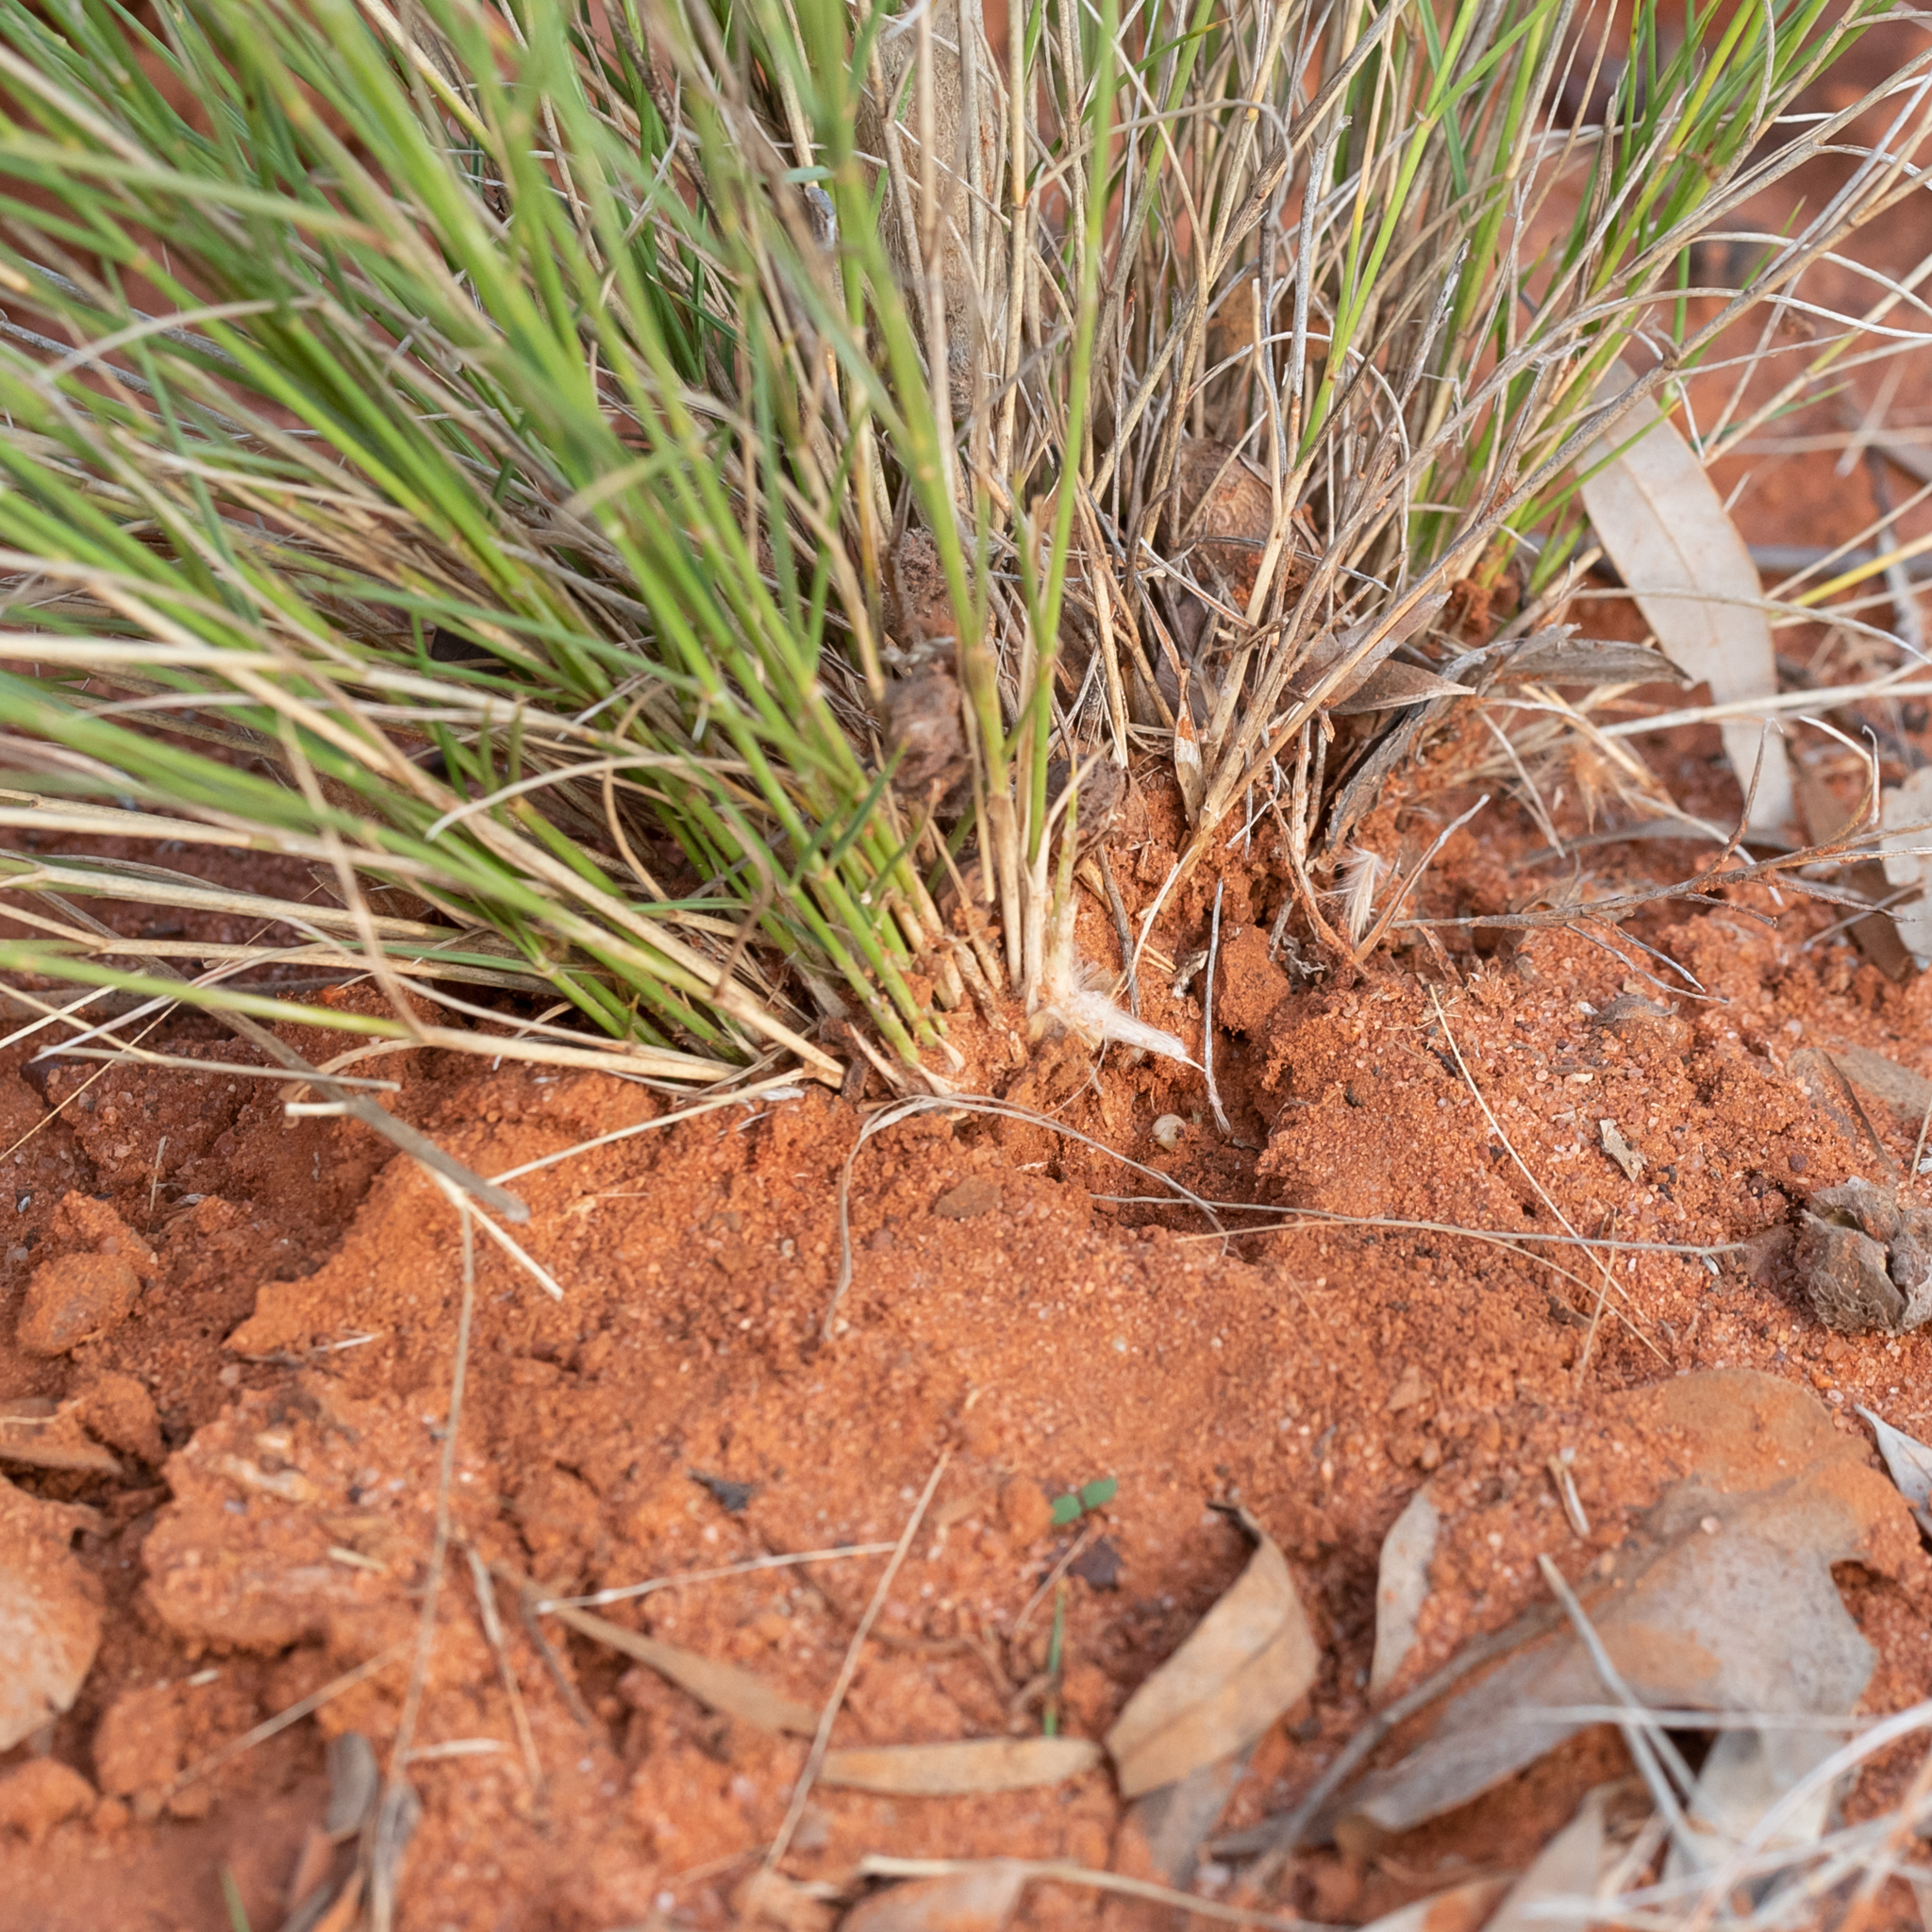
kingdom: Plantae
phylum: Tracheophyta
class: Liliopsida
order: Poales
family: Poaceae
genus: Eragrostis
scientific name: Eragrostis eriopoda
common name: Plain neverfail
